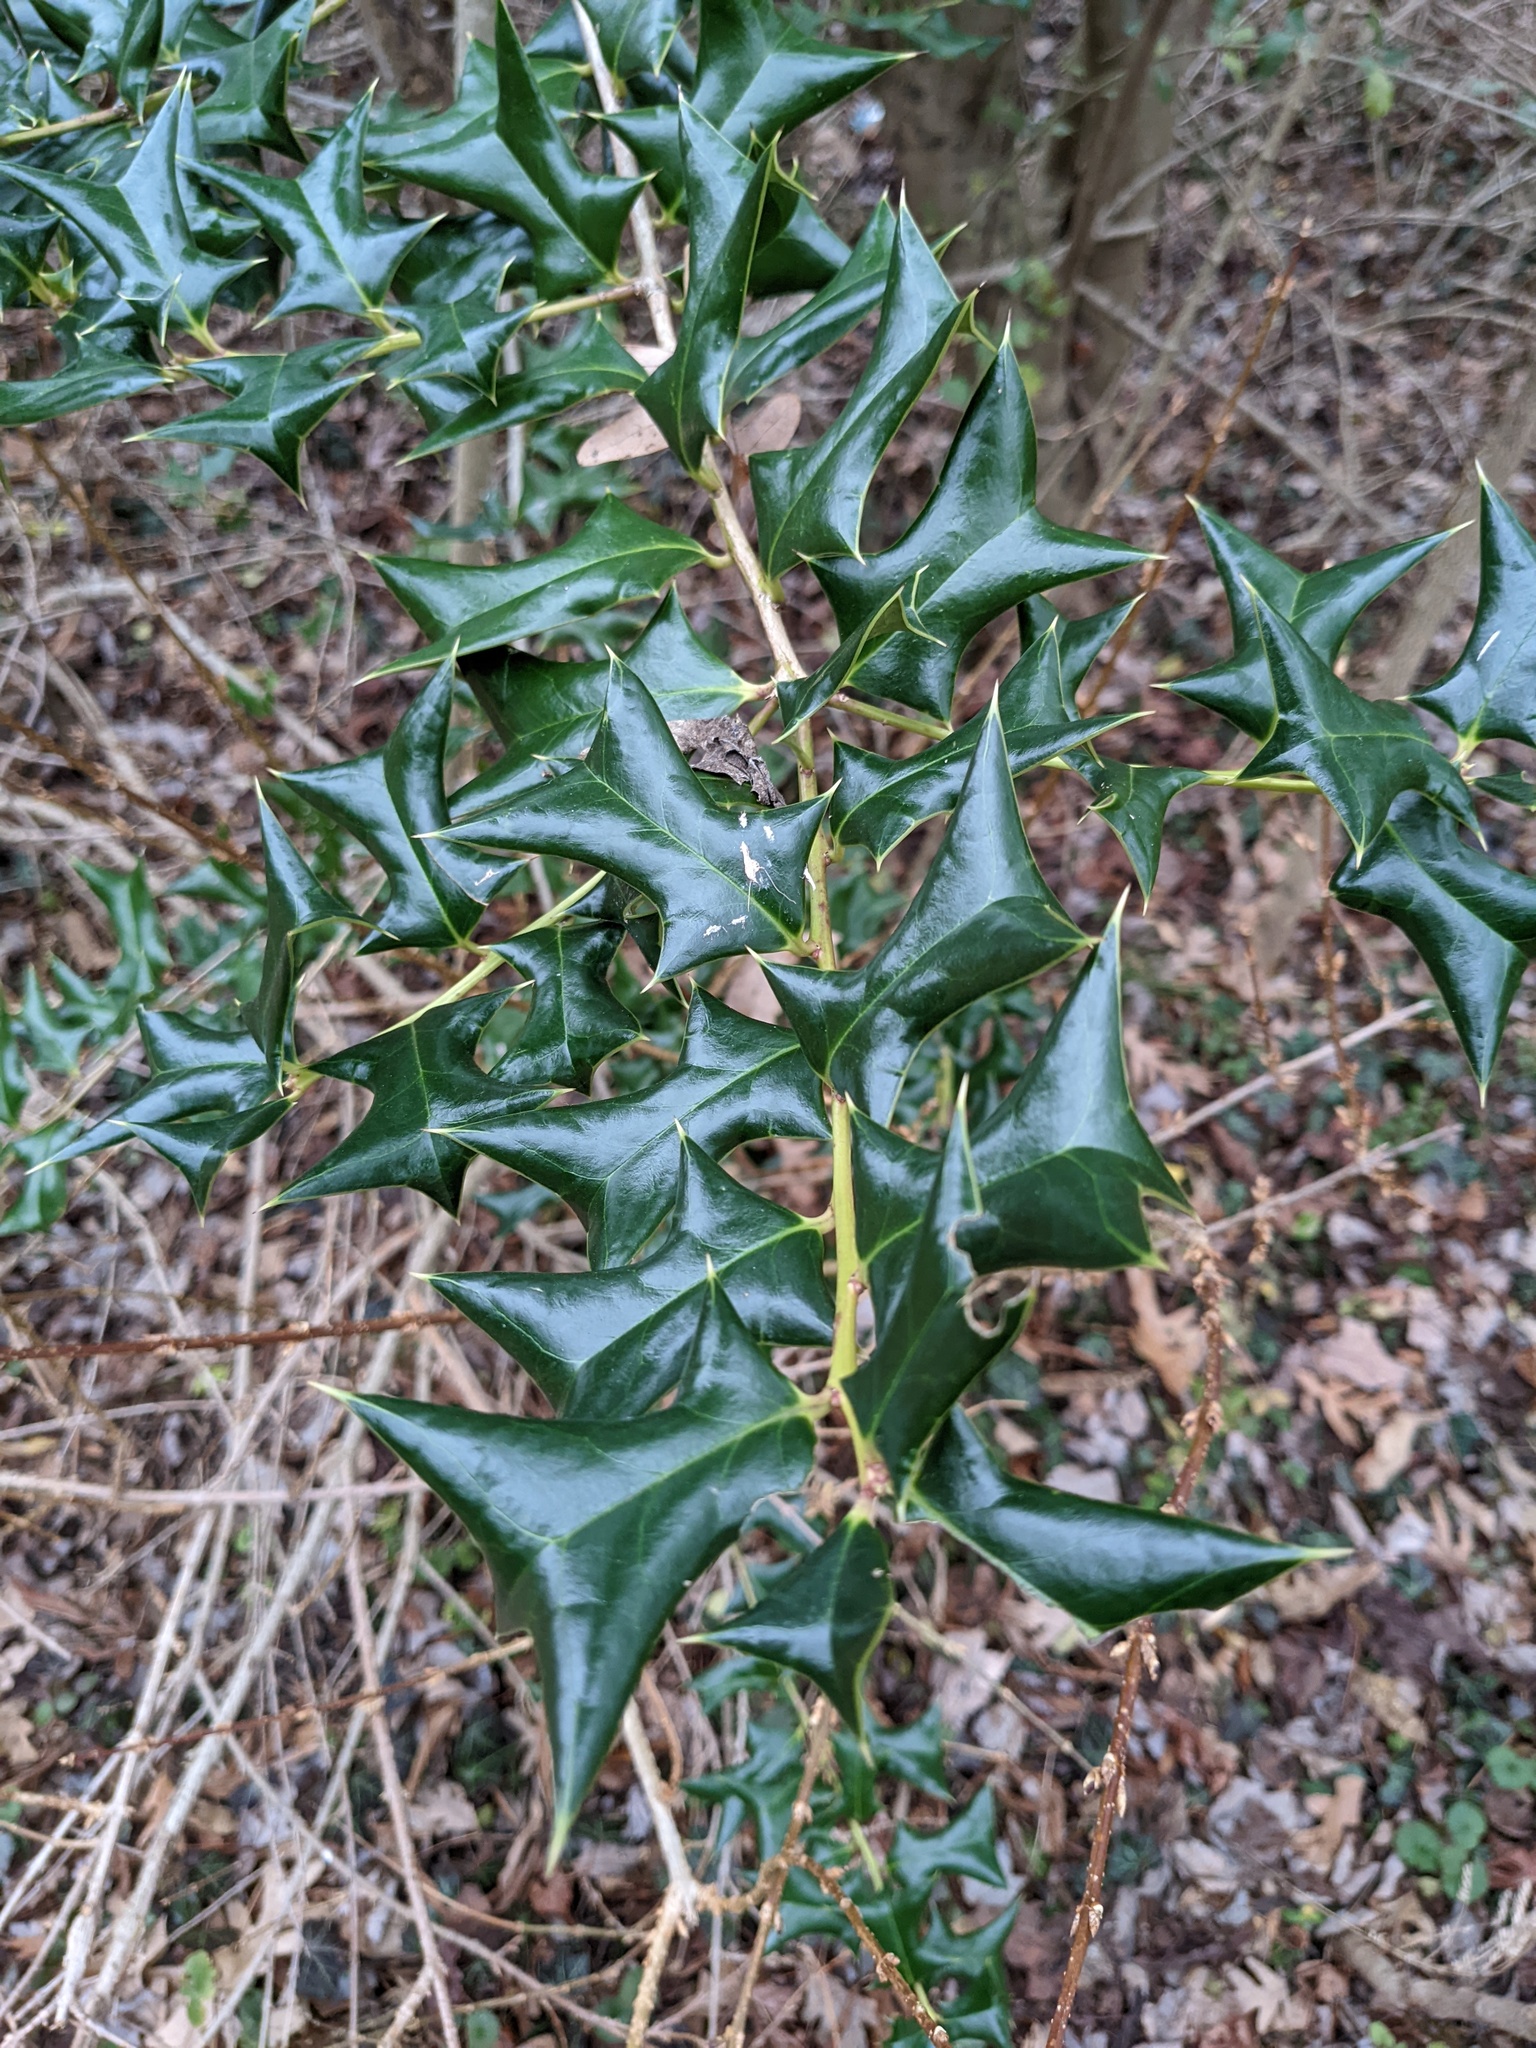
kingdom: Plantae
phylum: Tracheophyta
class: Magnoliopsida
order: Aquifoliales
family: Aquifoliaceae
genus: Ilex
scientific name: Ilex cornuta
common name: Chinese holly
